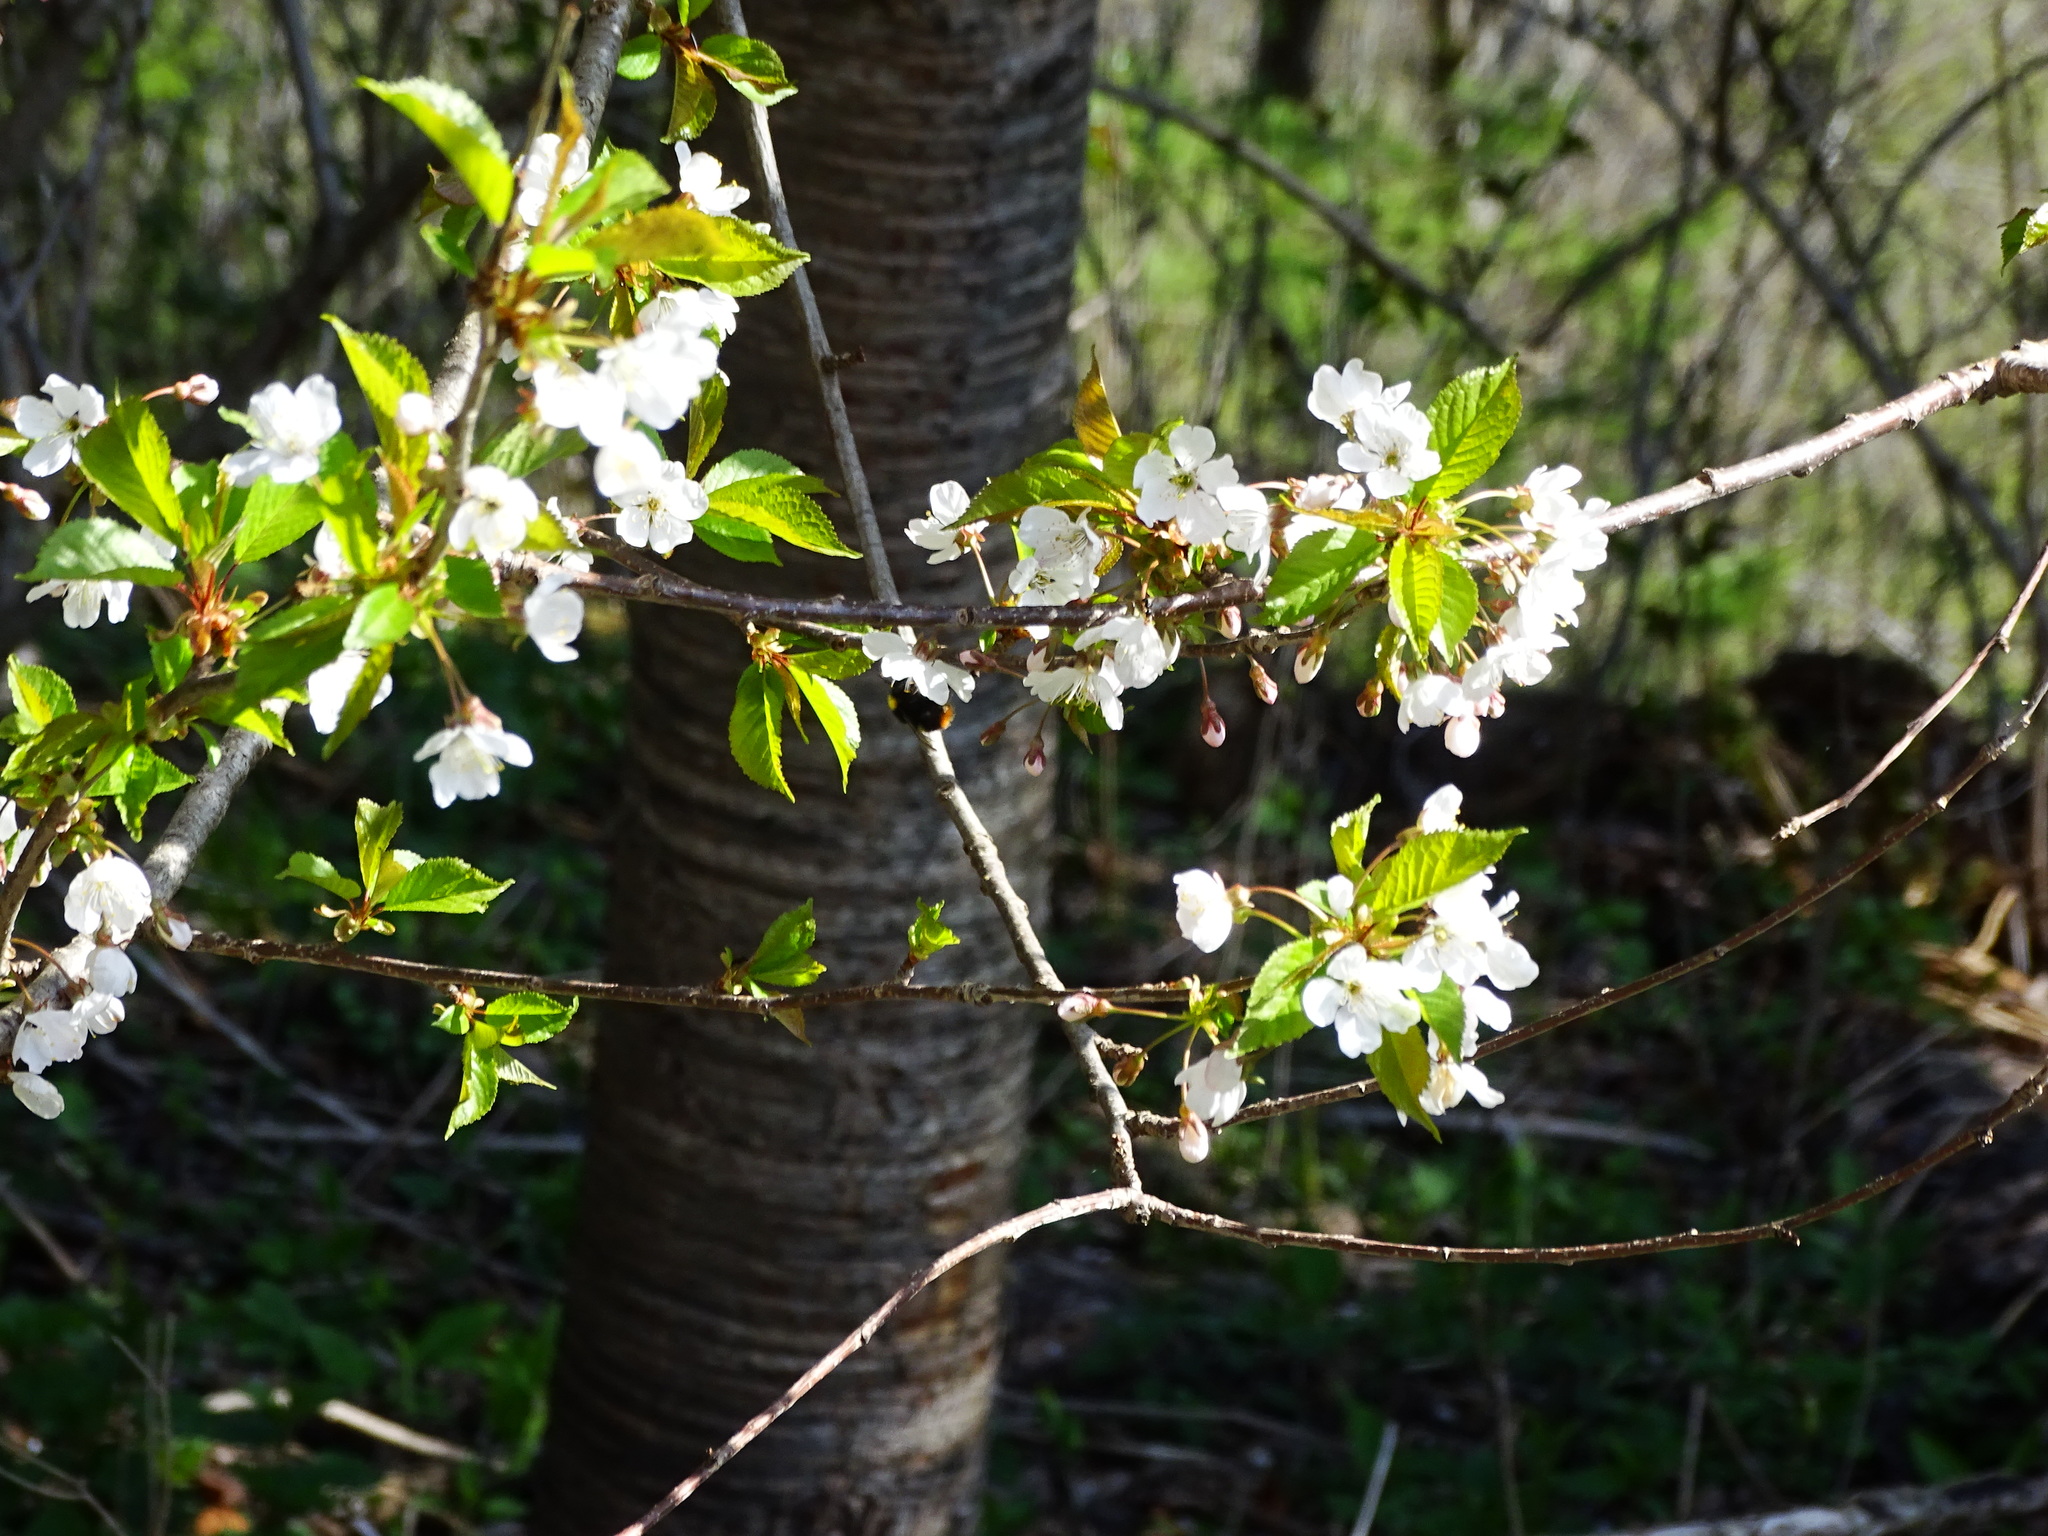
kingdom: Plantae
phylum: Tracheophyta
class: Magnoliopsida
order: Rosales
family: Rosaceae
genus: Prunus
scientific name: Prunus avium
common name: Sweet cherry
